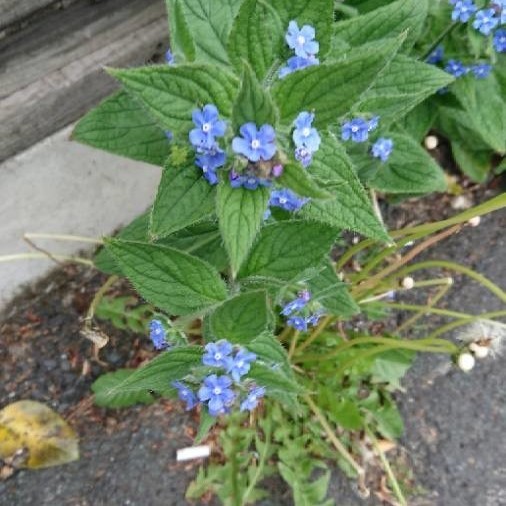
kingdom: Plantae
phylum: Tracheophyta
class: Magnoliopsida
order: Boraginales
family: Boraginaceae
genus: Pentaglottis
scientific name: Pentaglottis sempervirens
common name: Green alkanet
